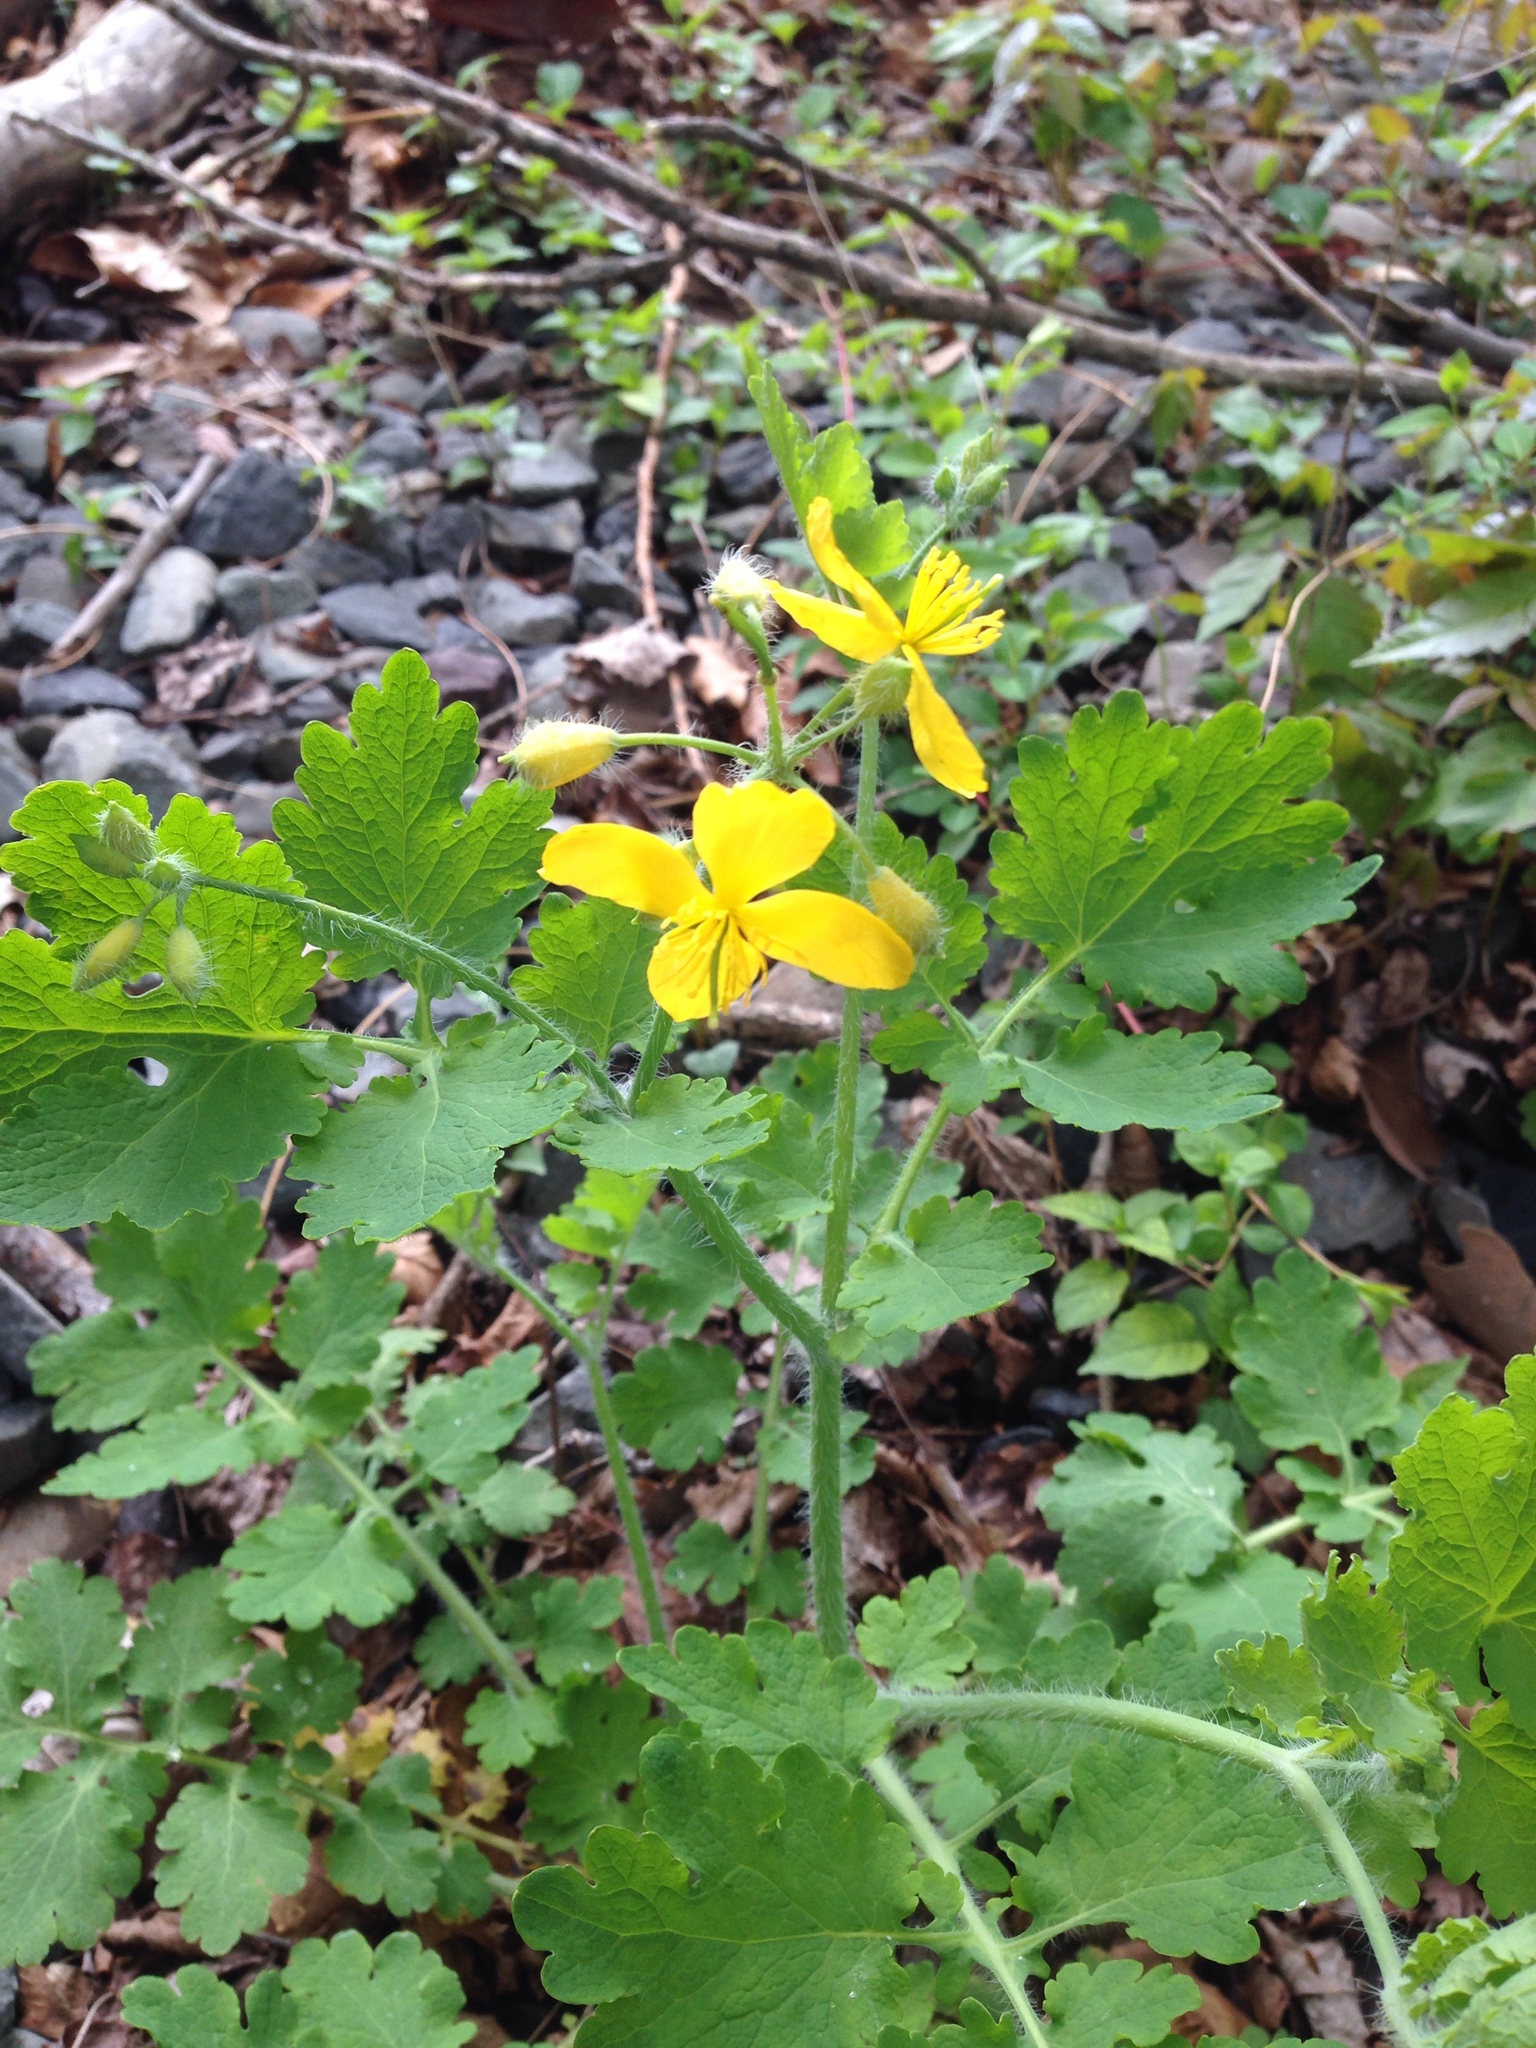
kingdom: Plantae
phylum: Tracheophyta
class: Magnoliopsida
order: Ranunculales
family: Papaveraceae
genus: Chelidonium
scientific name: Chelidonium majus
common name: Greater celandine
